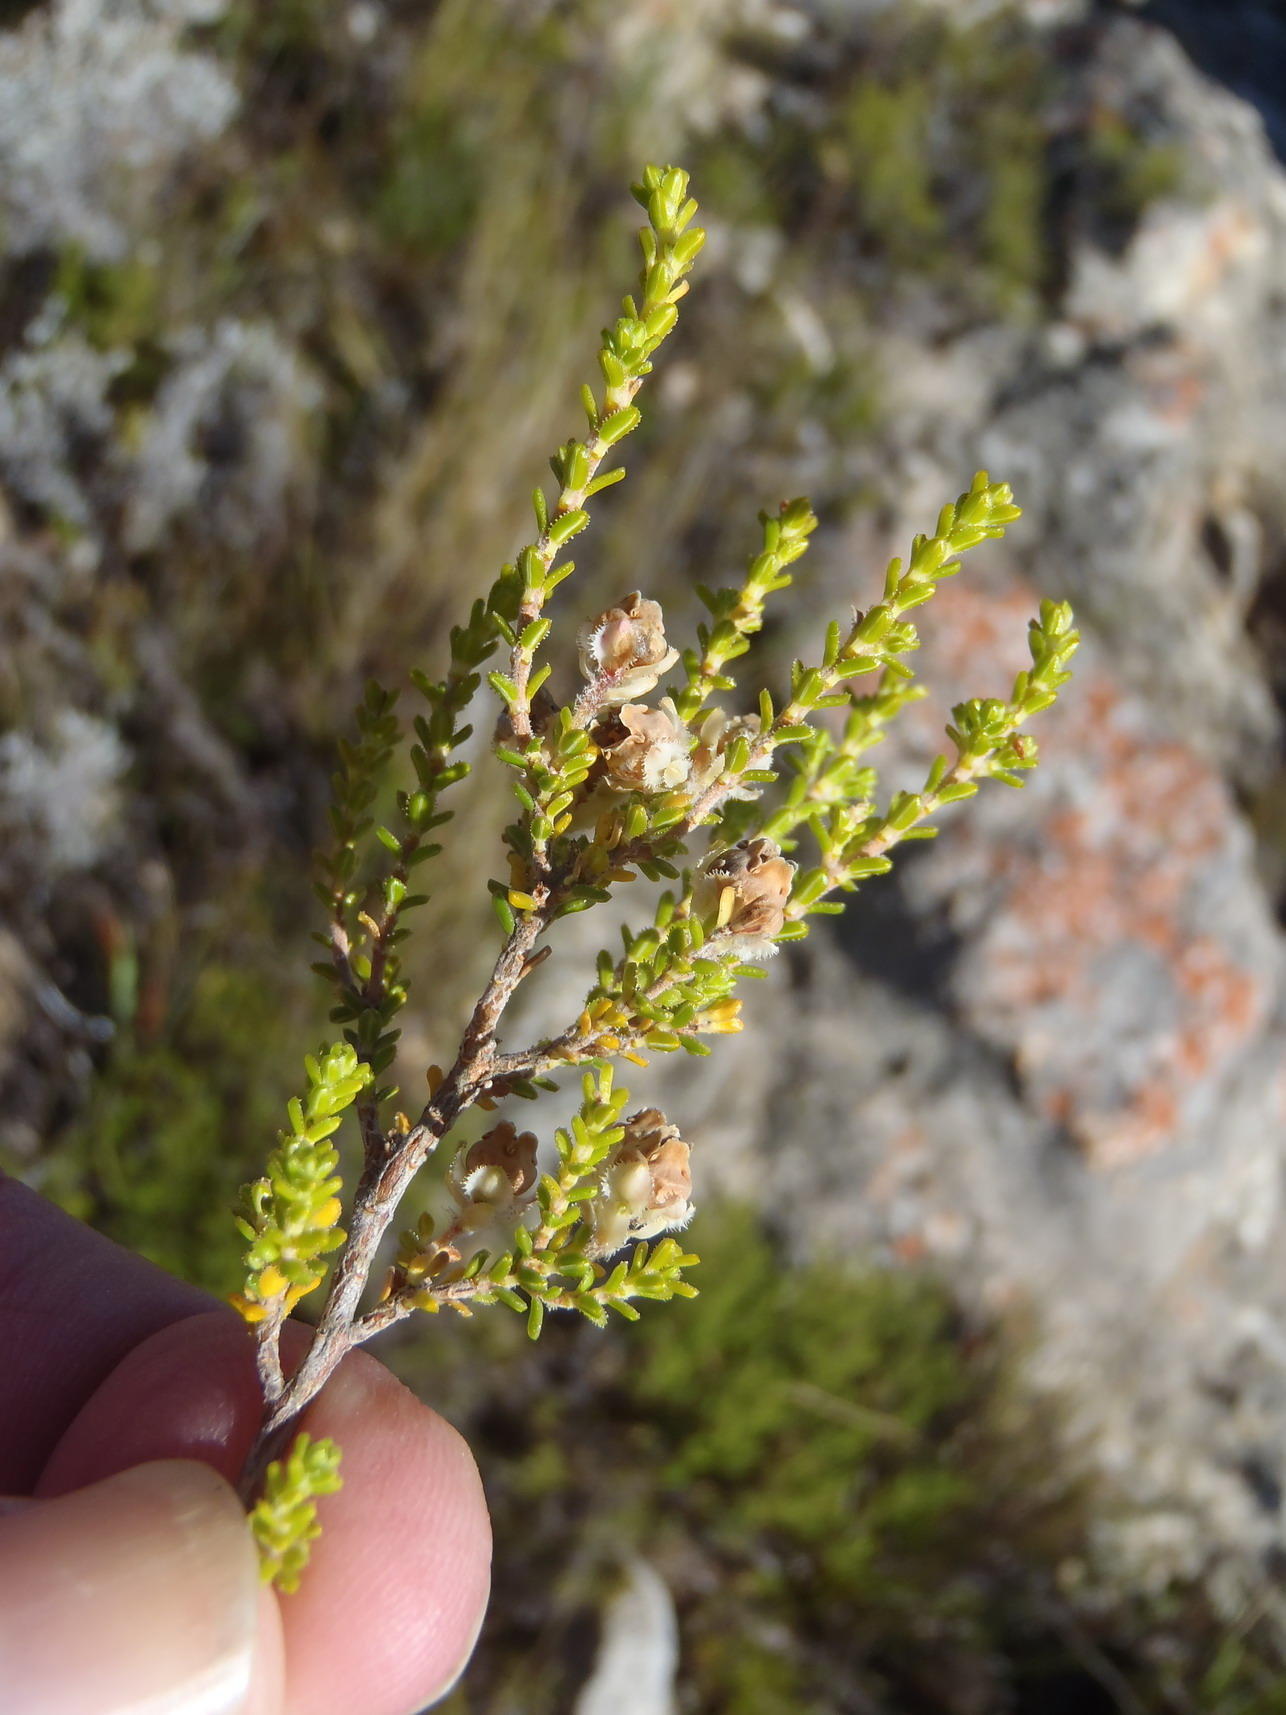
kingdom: Plantae
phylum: Tracheophyta
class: Magnoliopsida
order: Ericales
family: Ericaceae
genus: Erica
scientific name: Erica fimbriata
